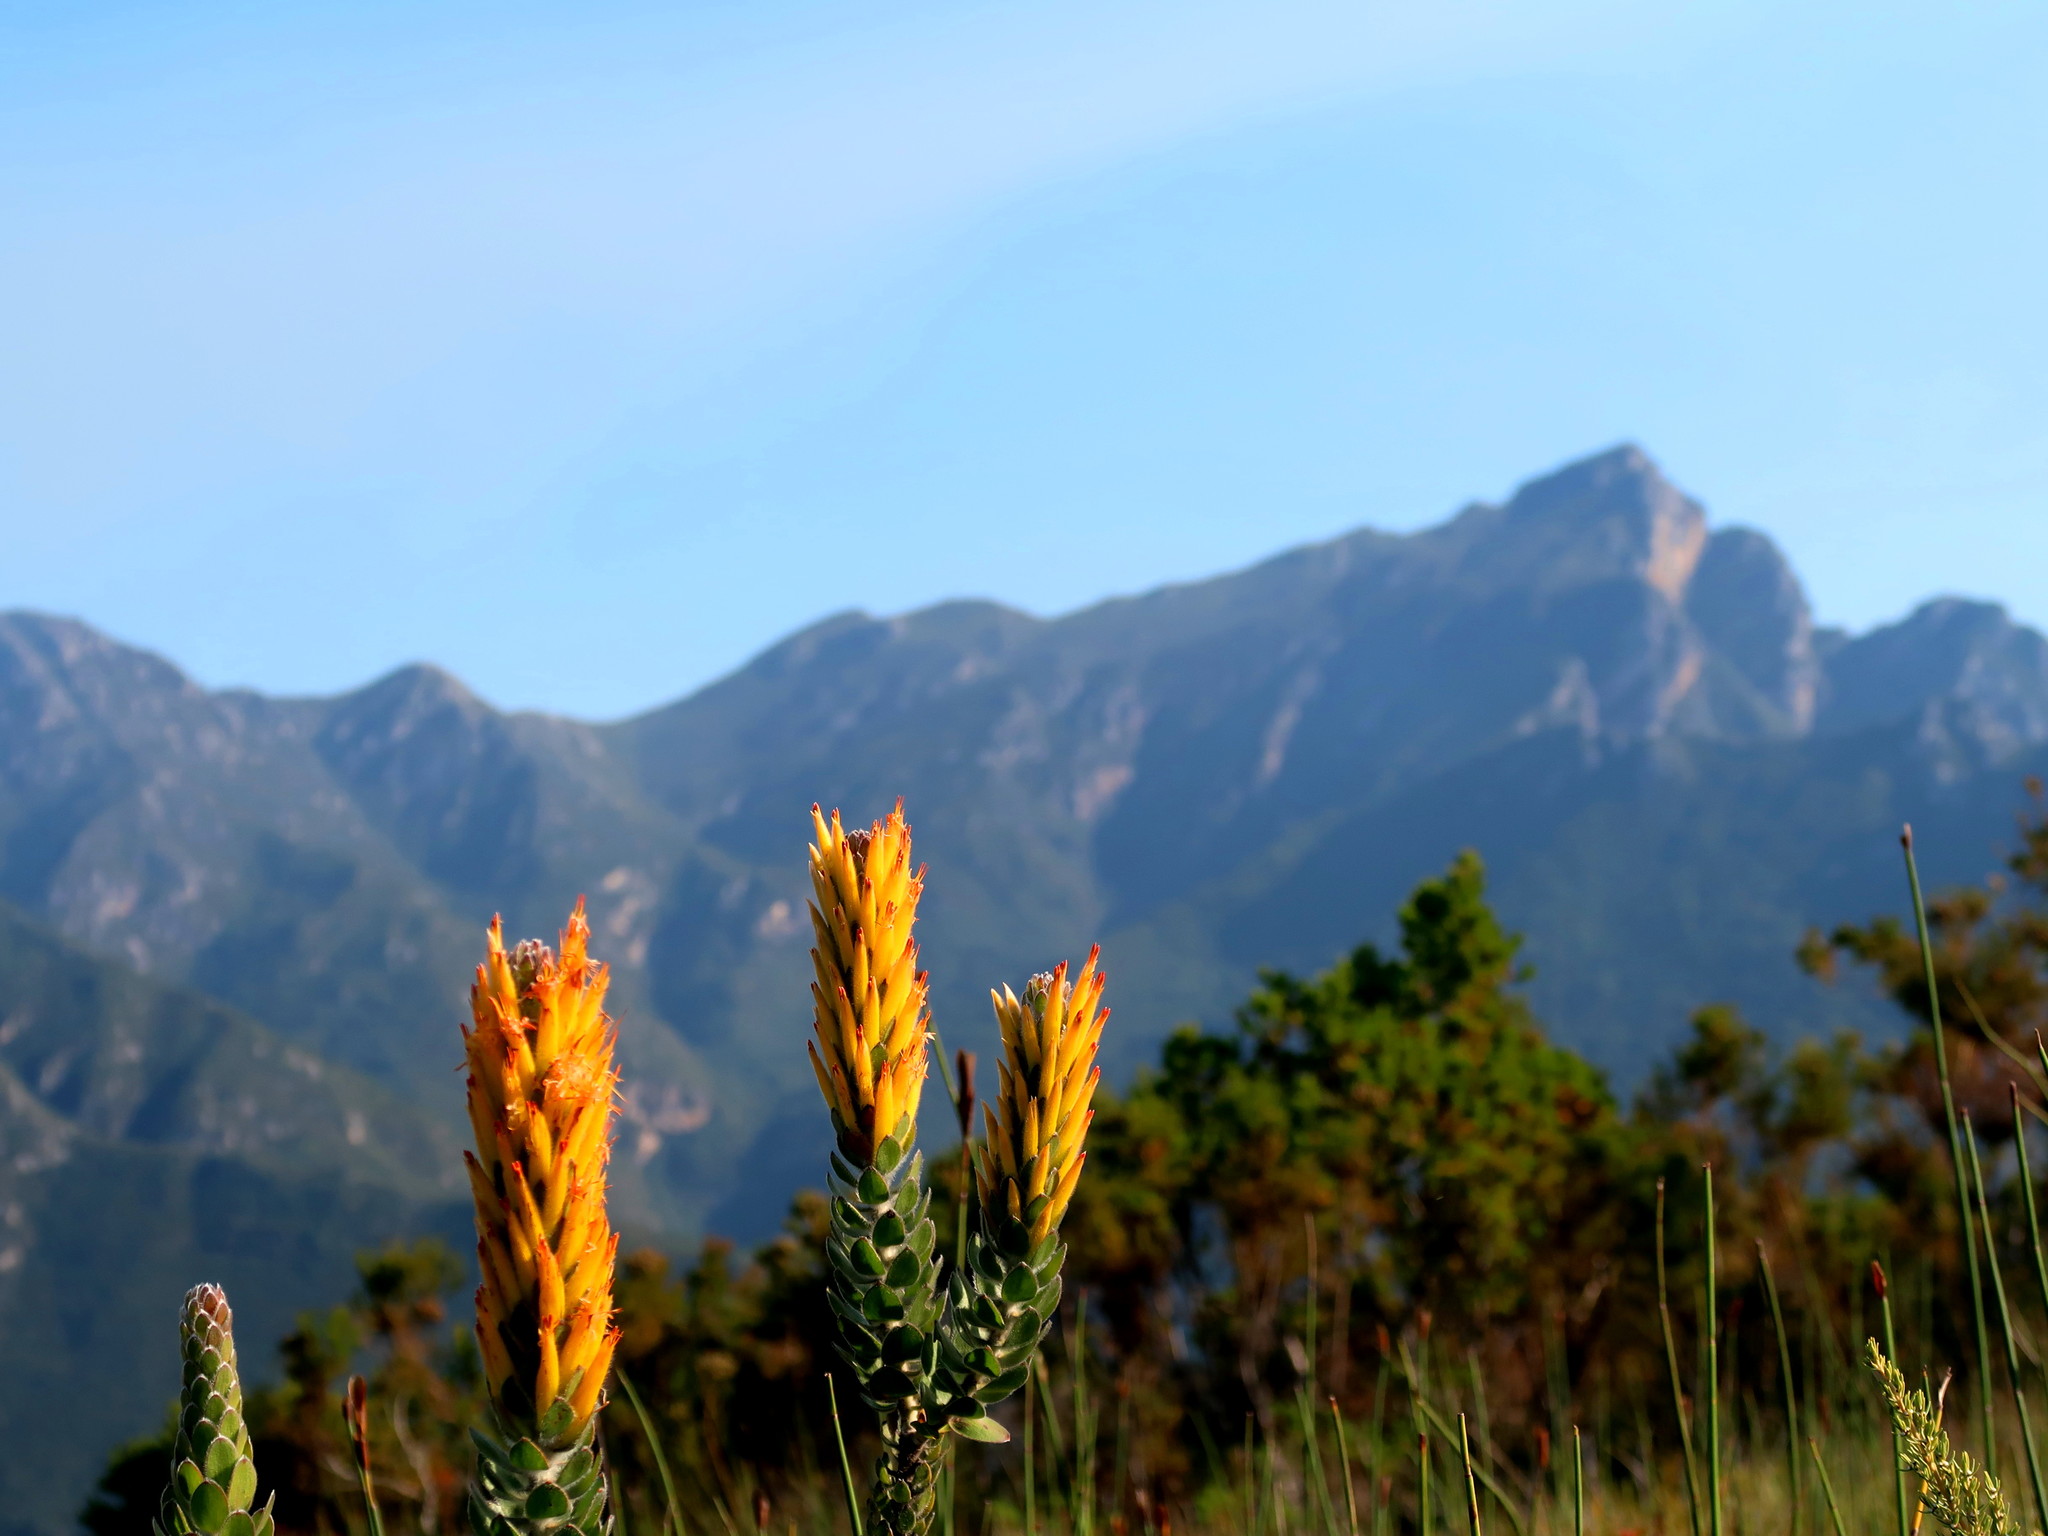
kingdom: Plantae
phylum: Tracheophyta
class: Magnoliopsida
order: Proteales
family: Proteaceae
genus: Mimetes
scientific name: Mimetes pauciflora
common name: Three-flowered pagoda
